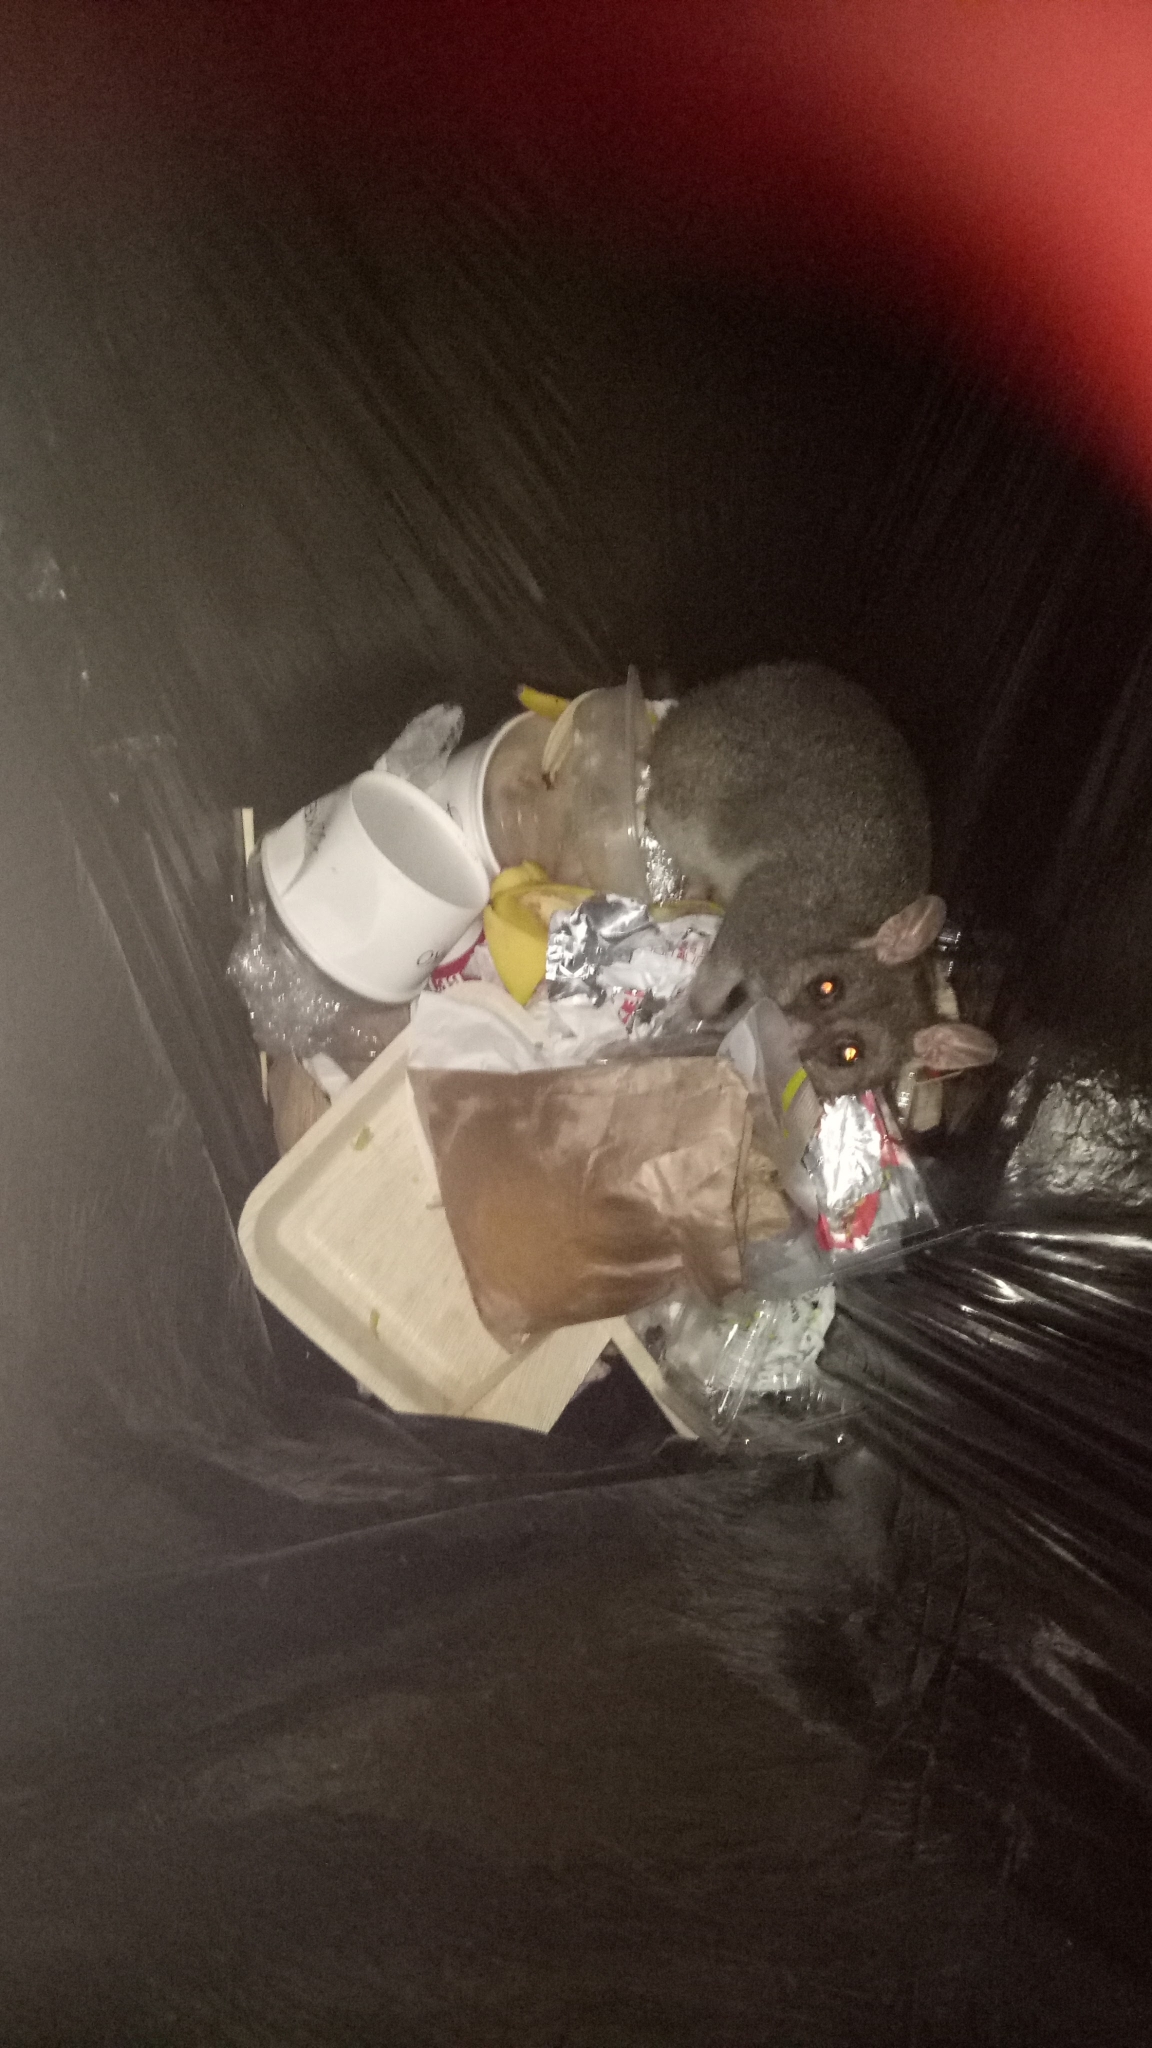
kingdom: Animalia
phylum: Chordata
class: Mammalia
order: Diprotodontia
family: Phalangeridae
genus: Trichosurus
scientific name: Trichosurus vulpecula
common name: Common brushtail
